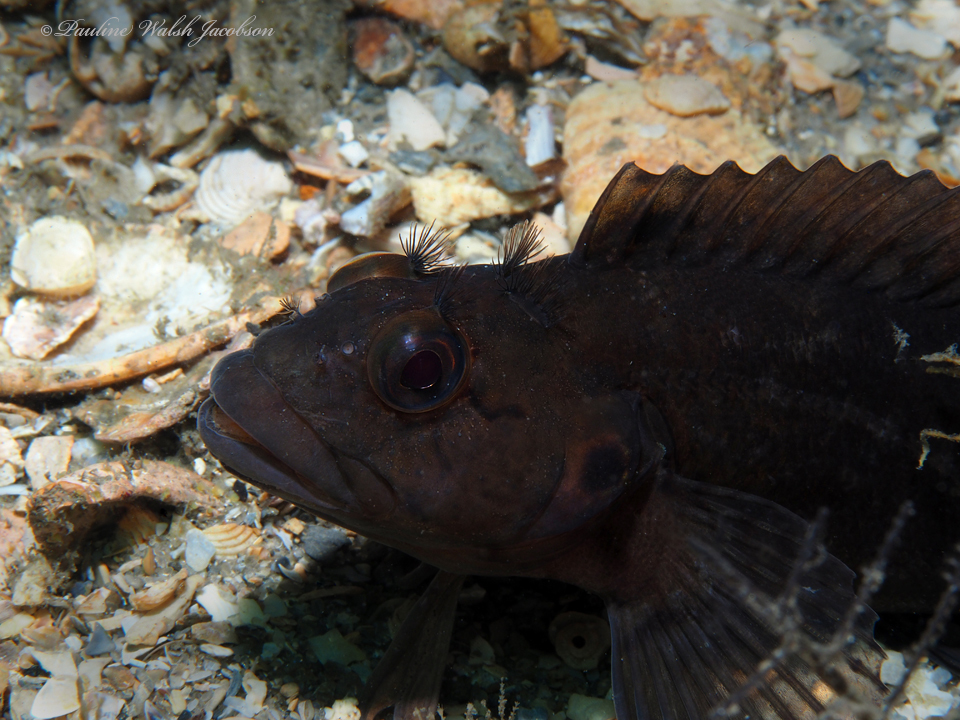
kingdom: Animalia
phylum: Chordata
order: Perciformes
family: Labrisomidae
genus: Labrisomus
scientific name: Labrisomus conditus
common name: Masquerader hairy blenny
